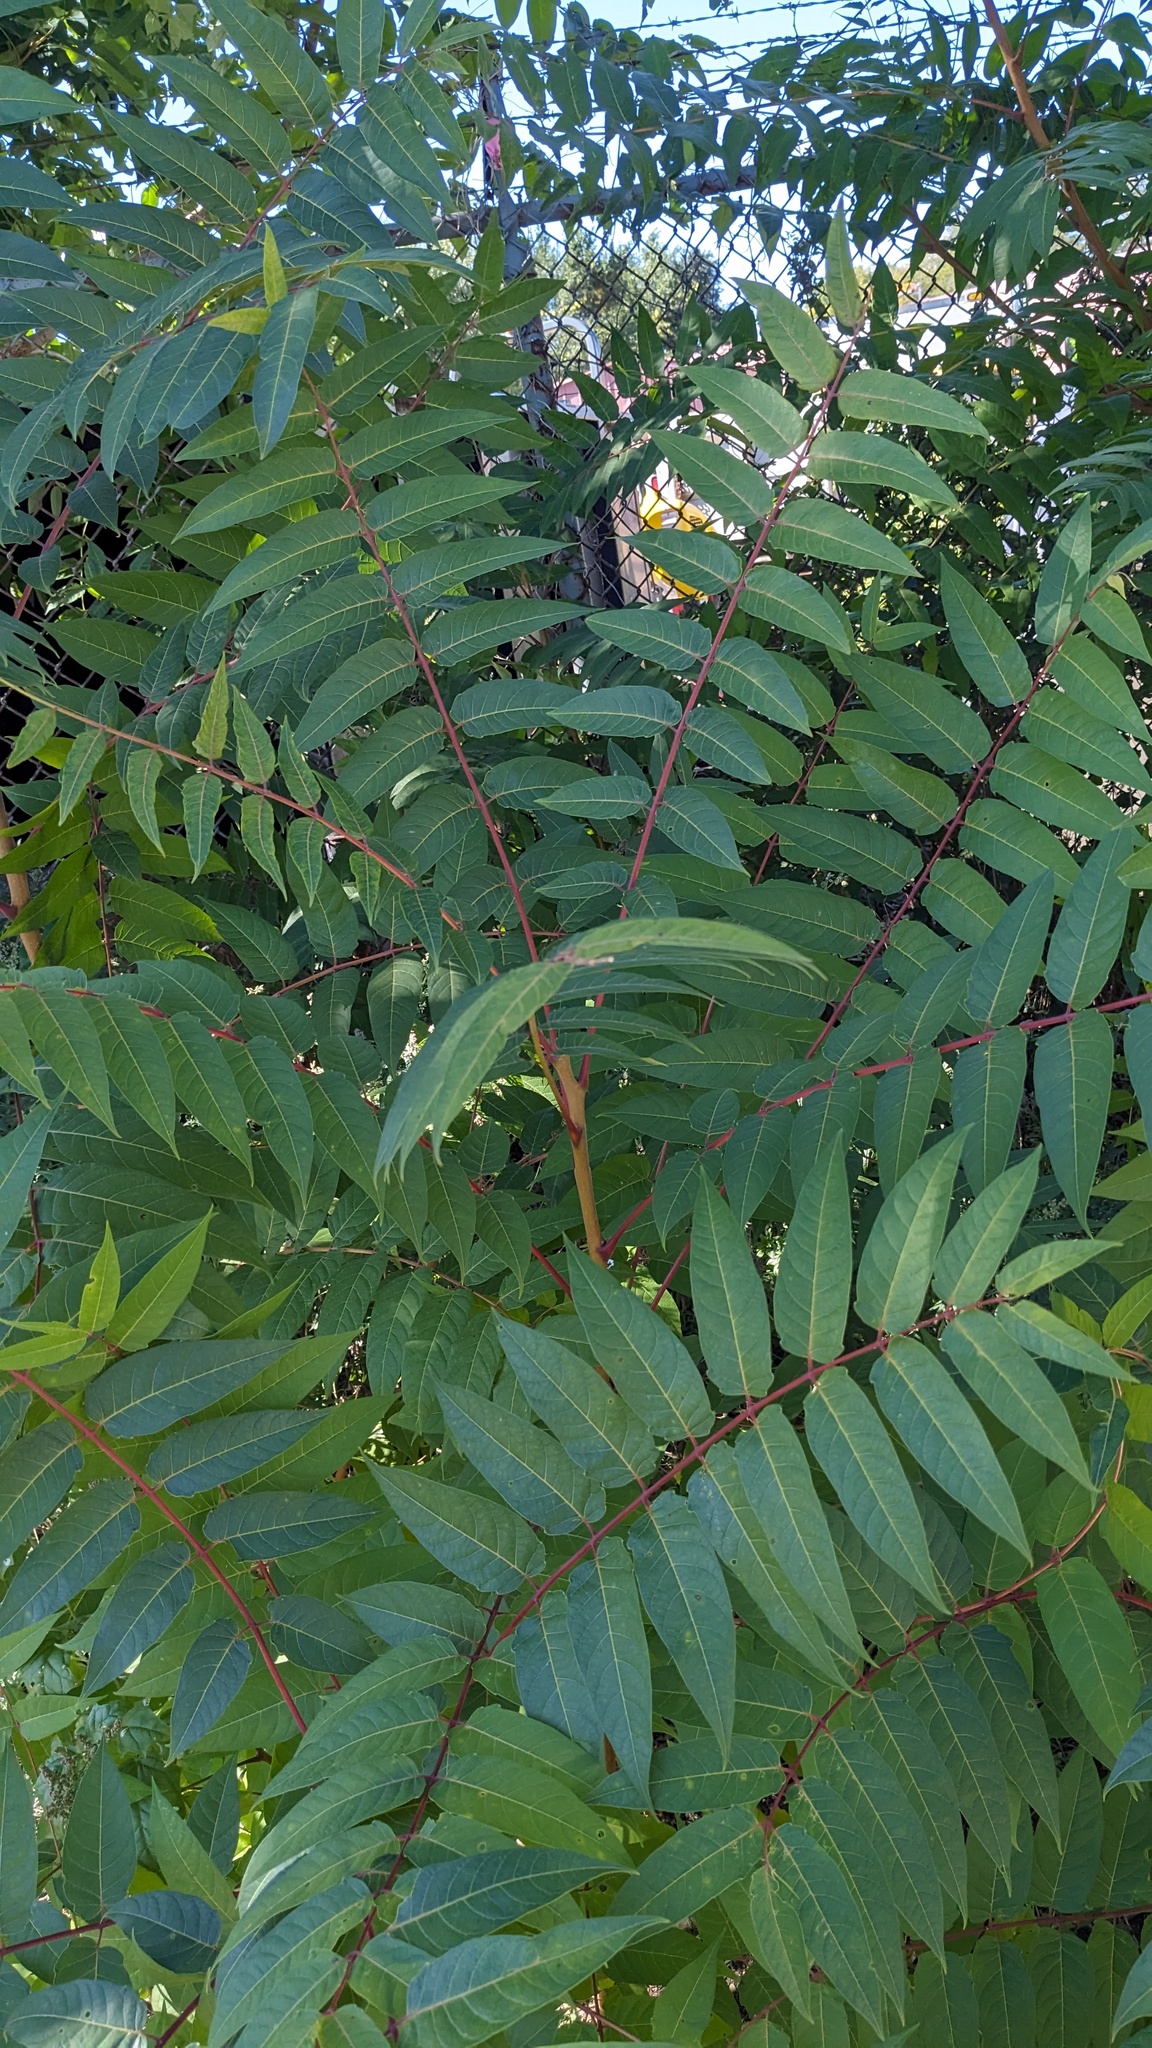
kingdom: Plantae
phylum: Tracheophyta
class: Magnoliopsida
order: Sapindales
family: Simaroubaceae
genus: Ailanthus
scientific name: Ailanthus altissima
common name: Tree-of-heaven
